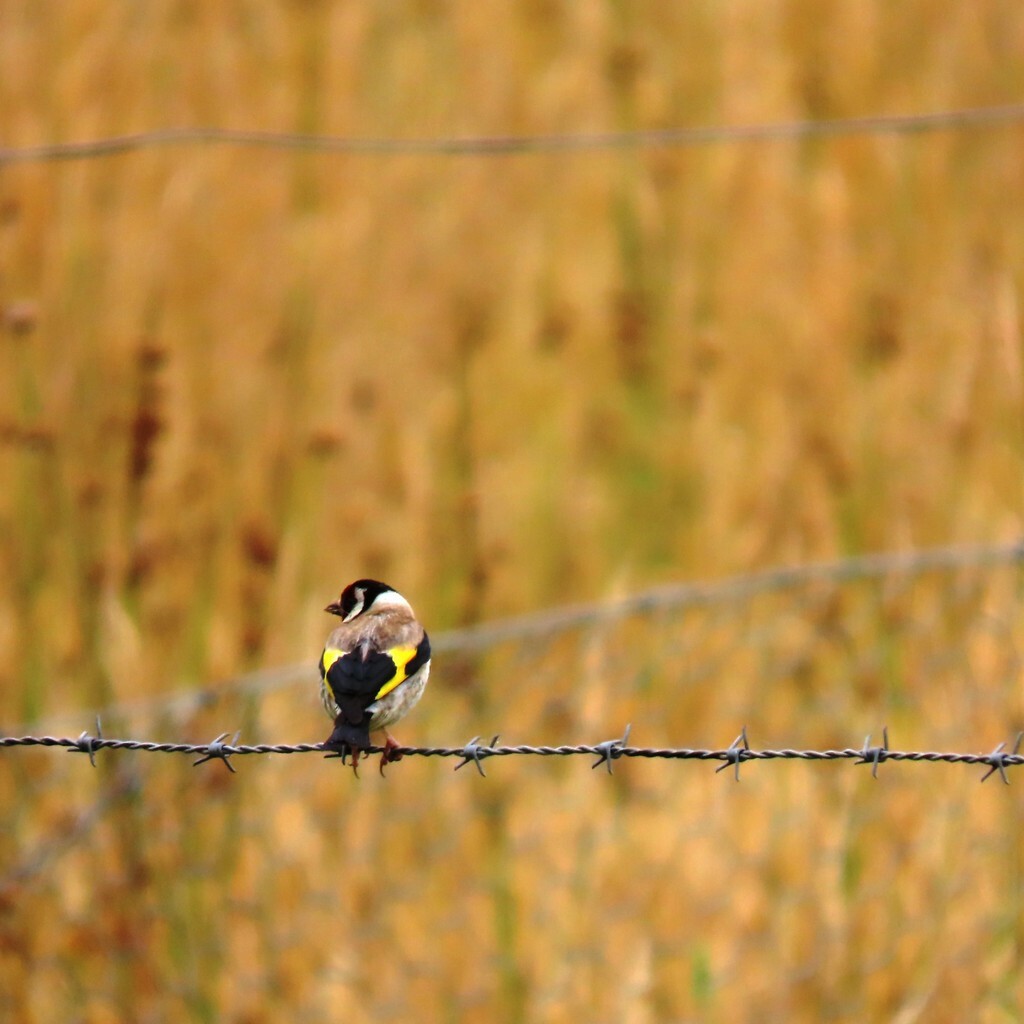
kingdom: Animalia
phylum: Chordata
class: Aves
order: Passeriformes
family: Fringillidae
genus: Carduelis
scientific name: Carduelis carduelis
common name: European goldfinch
